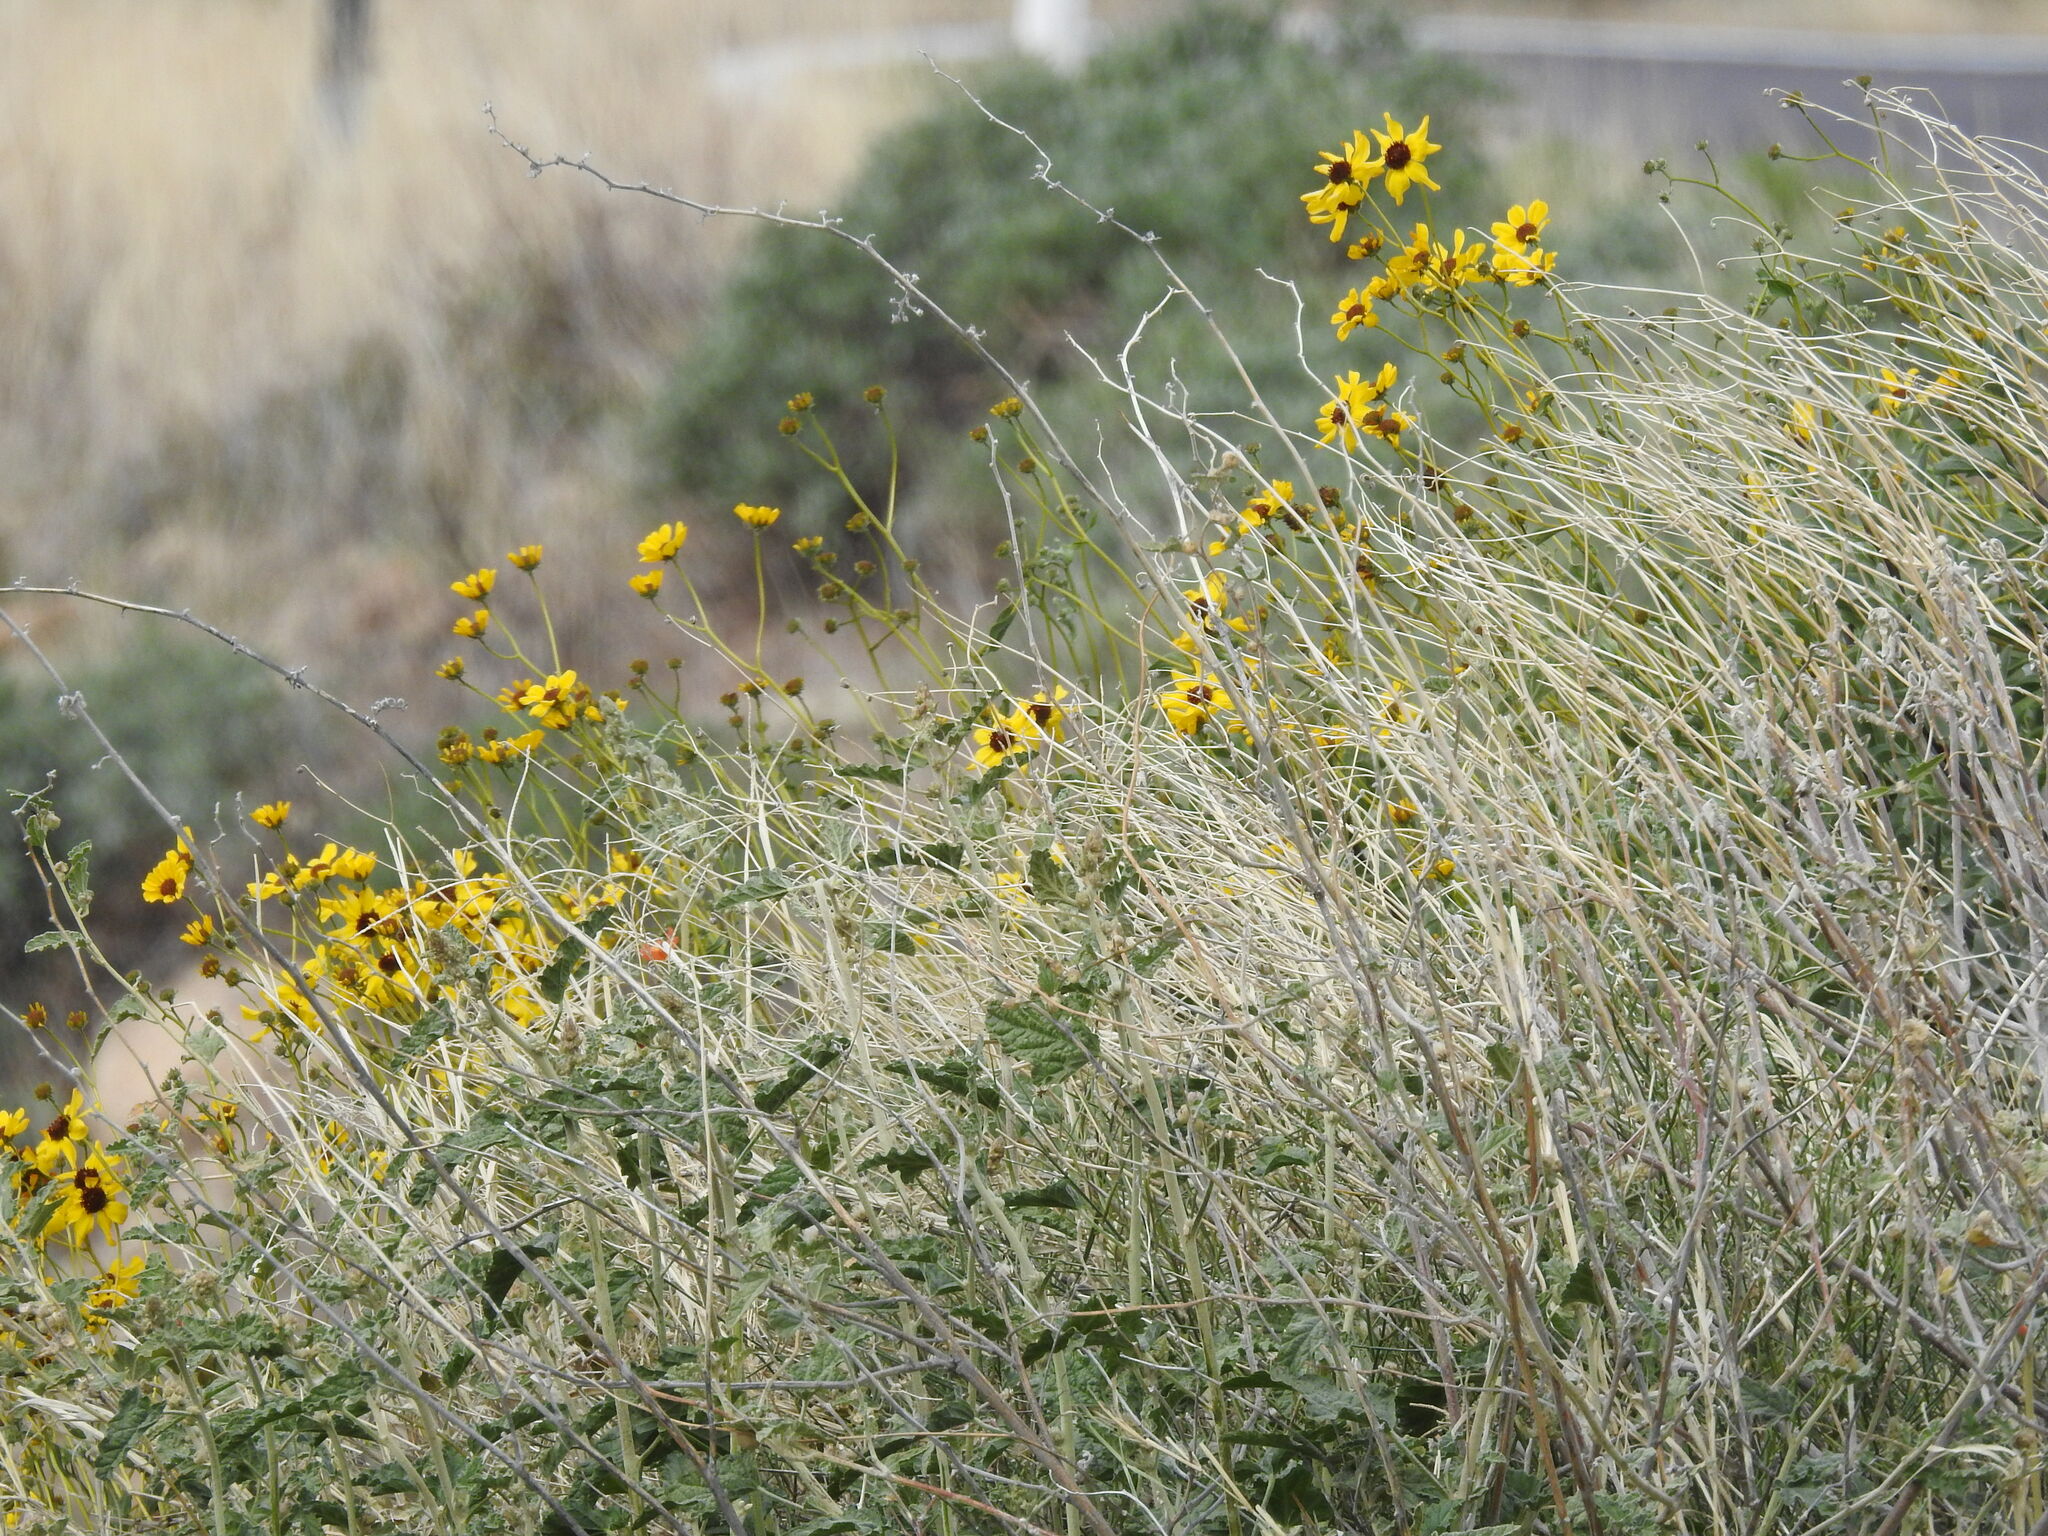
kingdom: Plantae
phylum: Tracheophyta
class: Magnoliopsida
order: Asterales
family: Asteraceae
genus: Encelia
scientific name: Encelia farinosa
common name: Brittlebush
